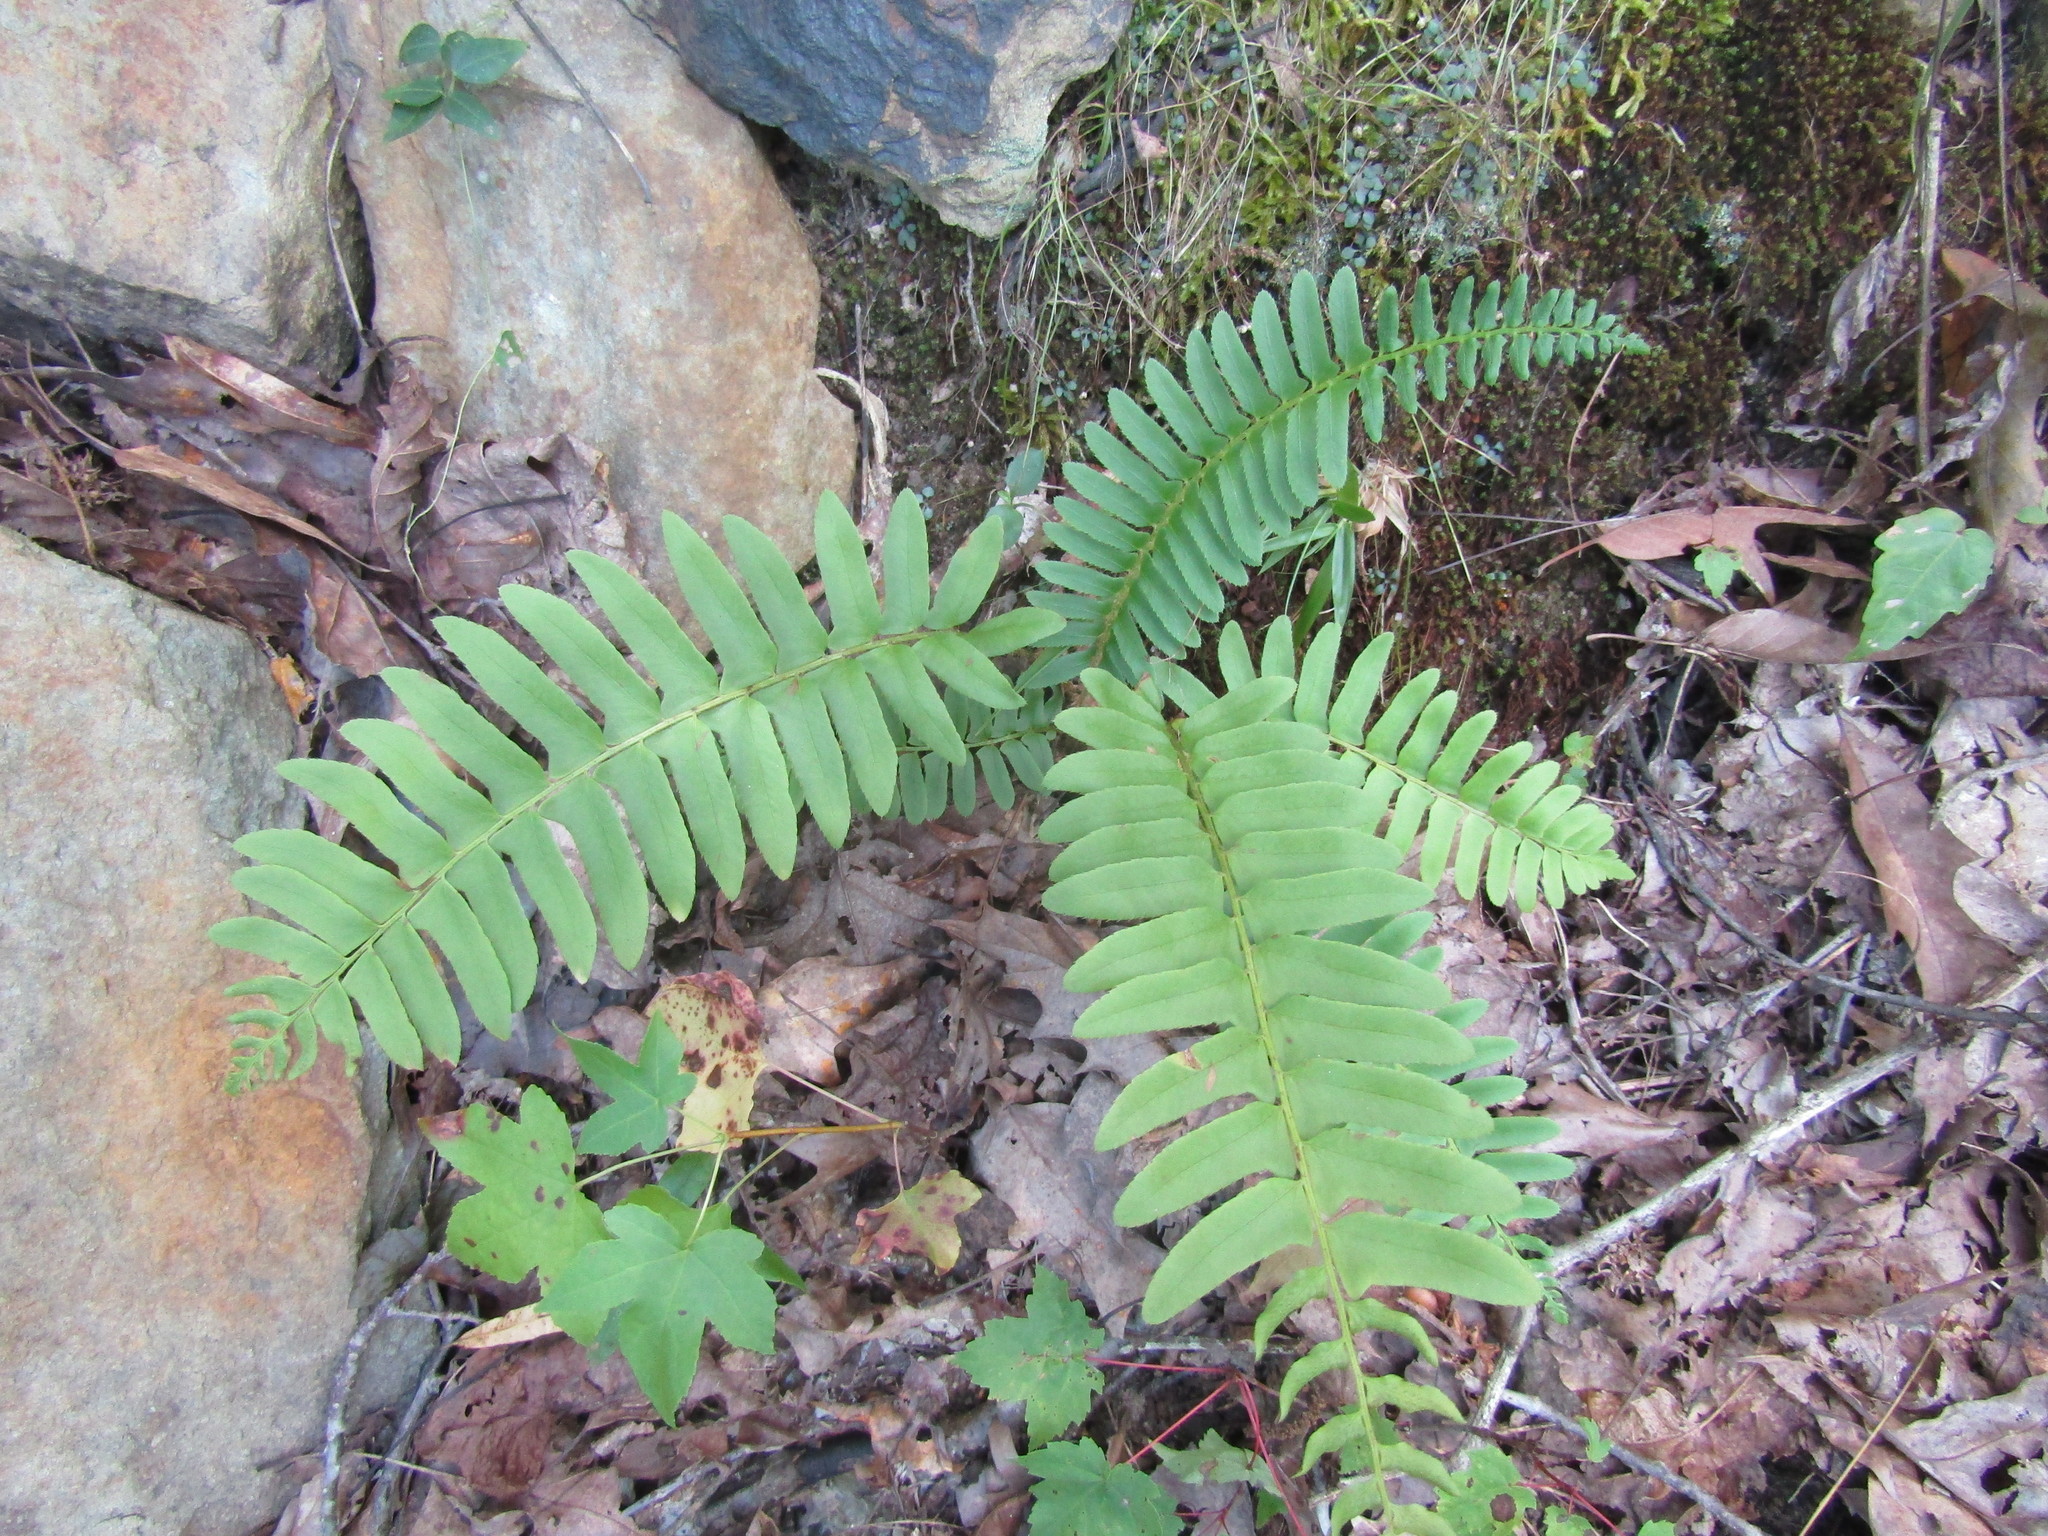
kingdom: Plantae
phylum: Tracheophyta
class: Polypodiopsida
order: Polypodiales
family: Dryopteridaceae
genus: Polystichum
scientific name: Polystichum acrostichoides
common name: Christmas fern
